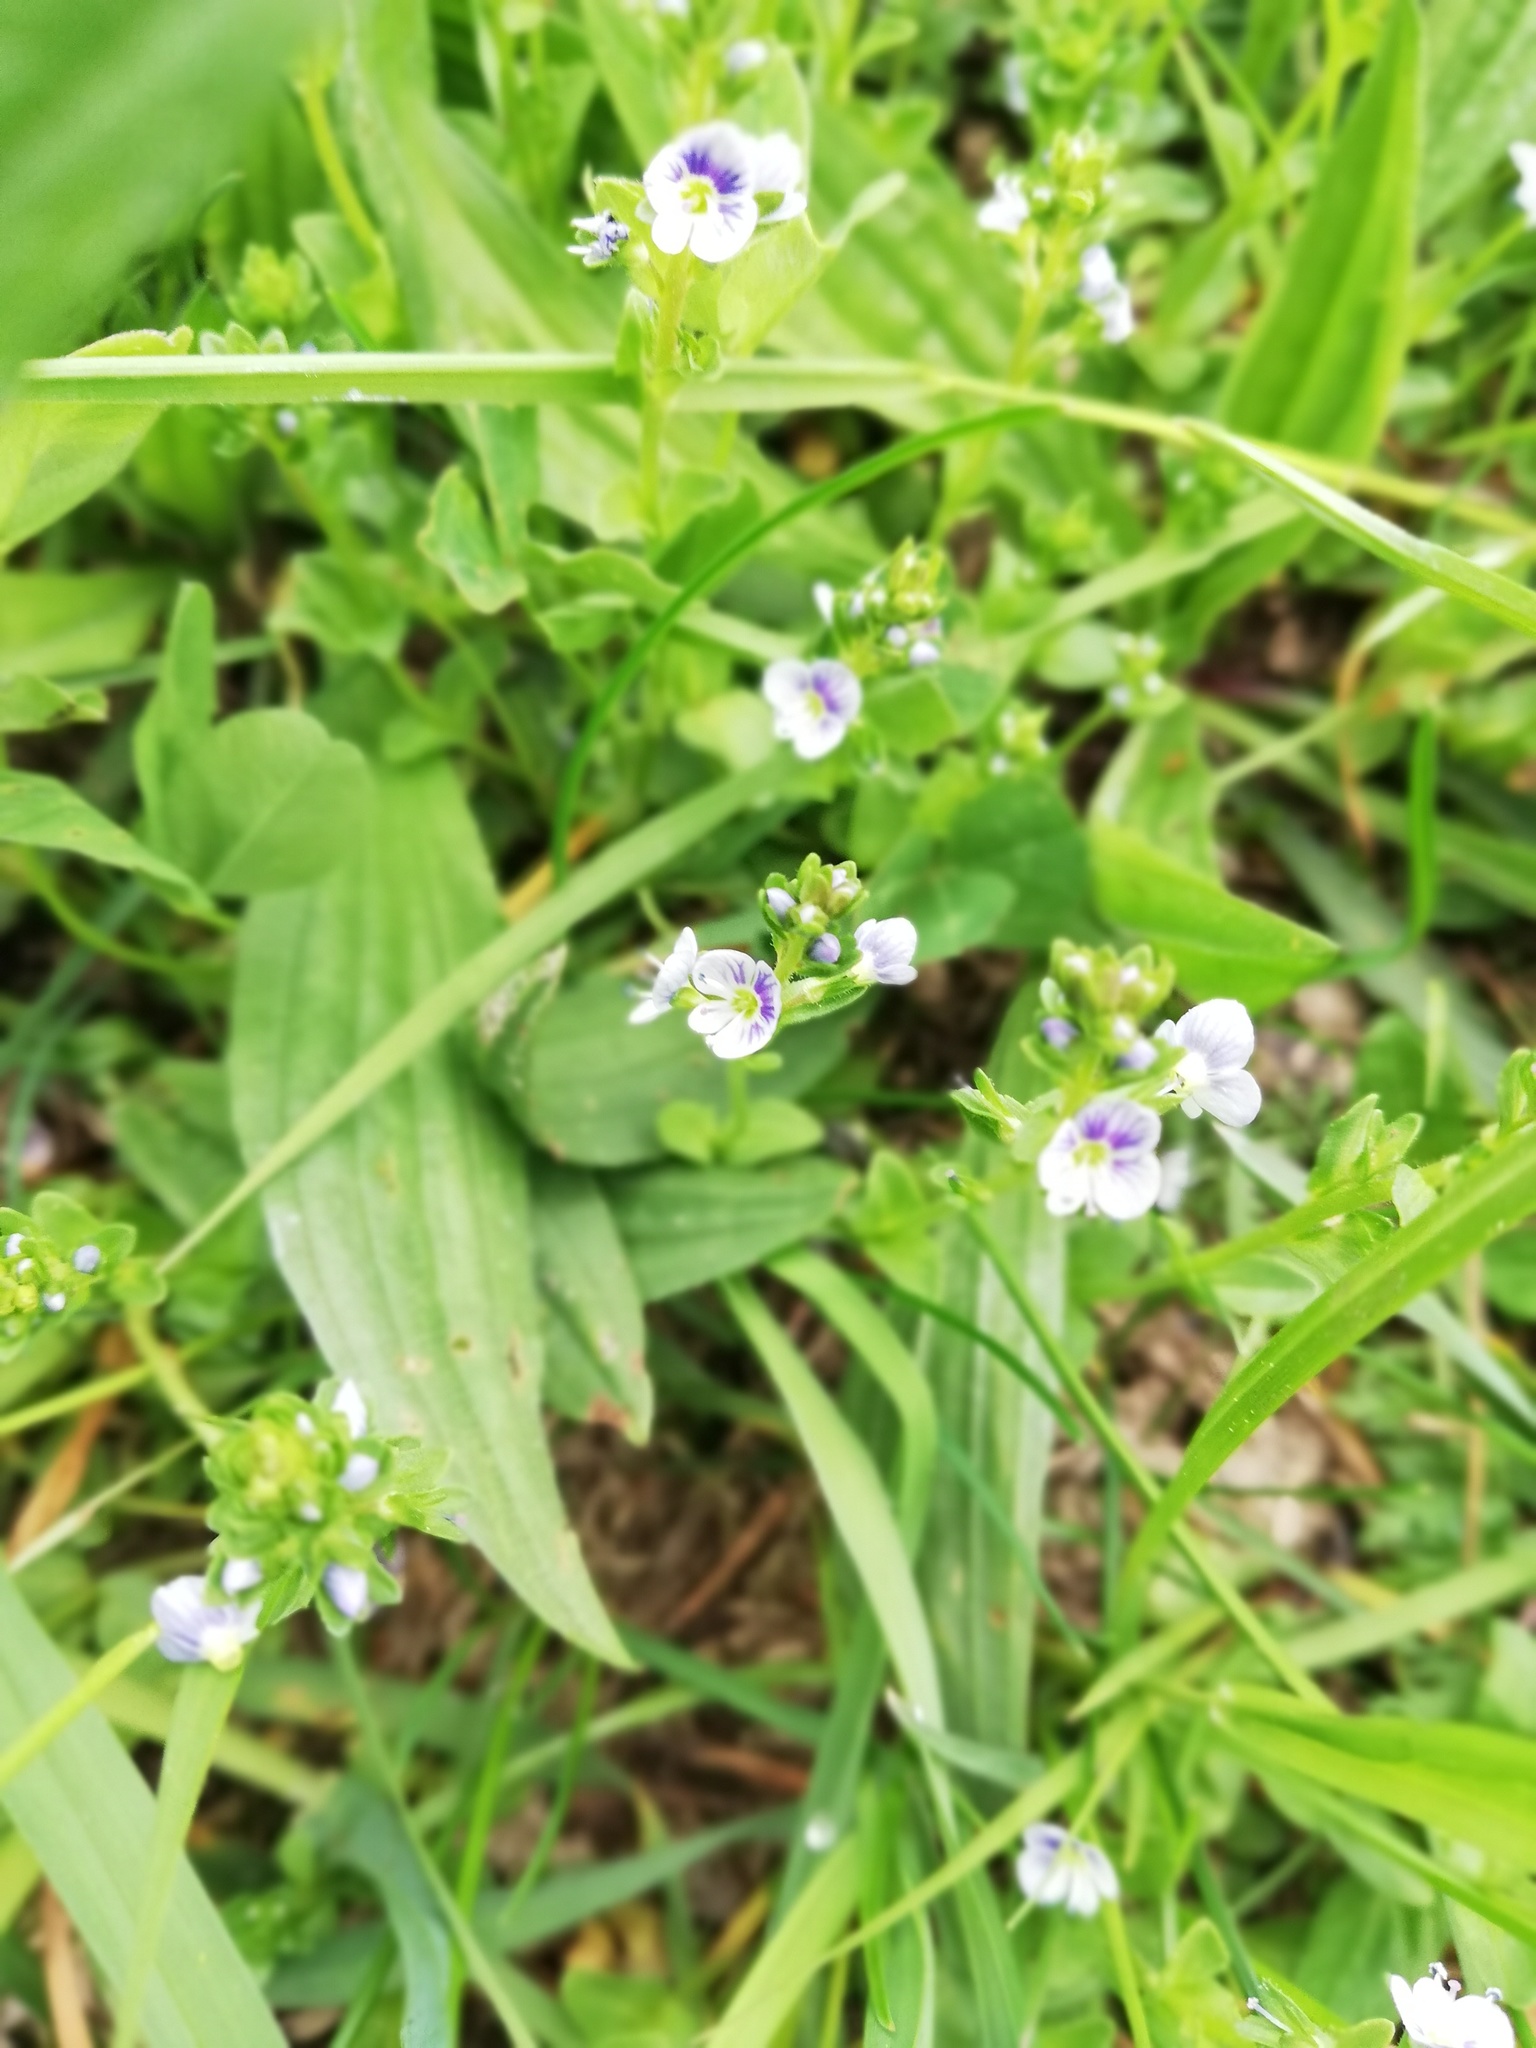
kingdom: Plantae
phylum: Tracheophyta
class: Magnoliopsida
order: Lamiales
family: Plantaginaceae
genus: Veronica
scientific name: Veronica serpyllifolia
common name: Thyme-leaved speedwell
